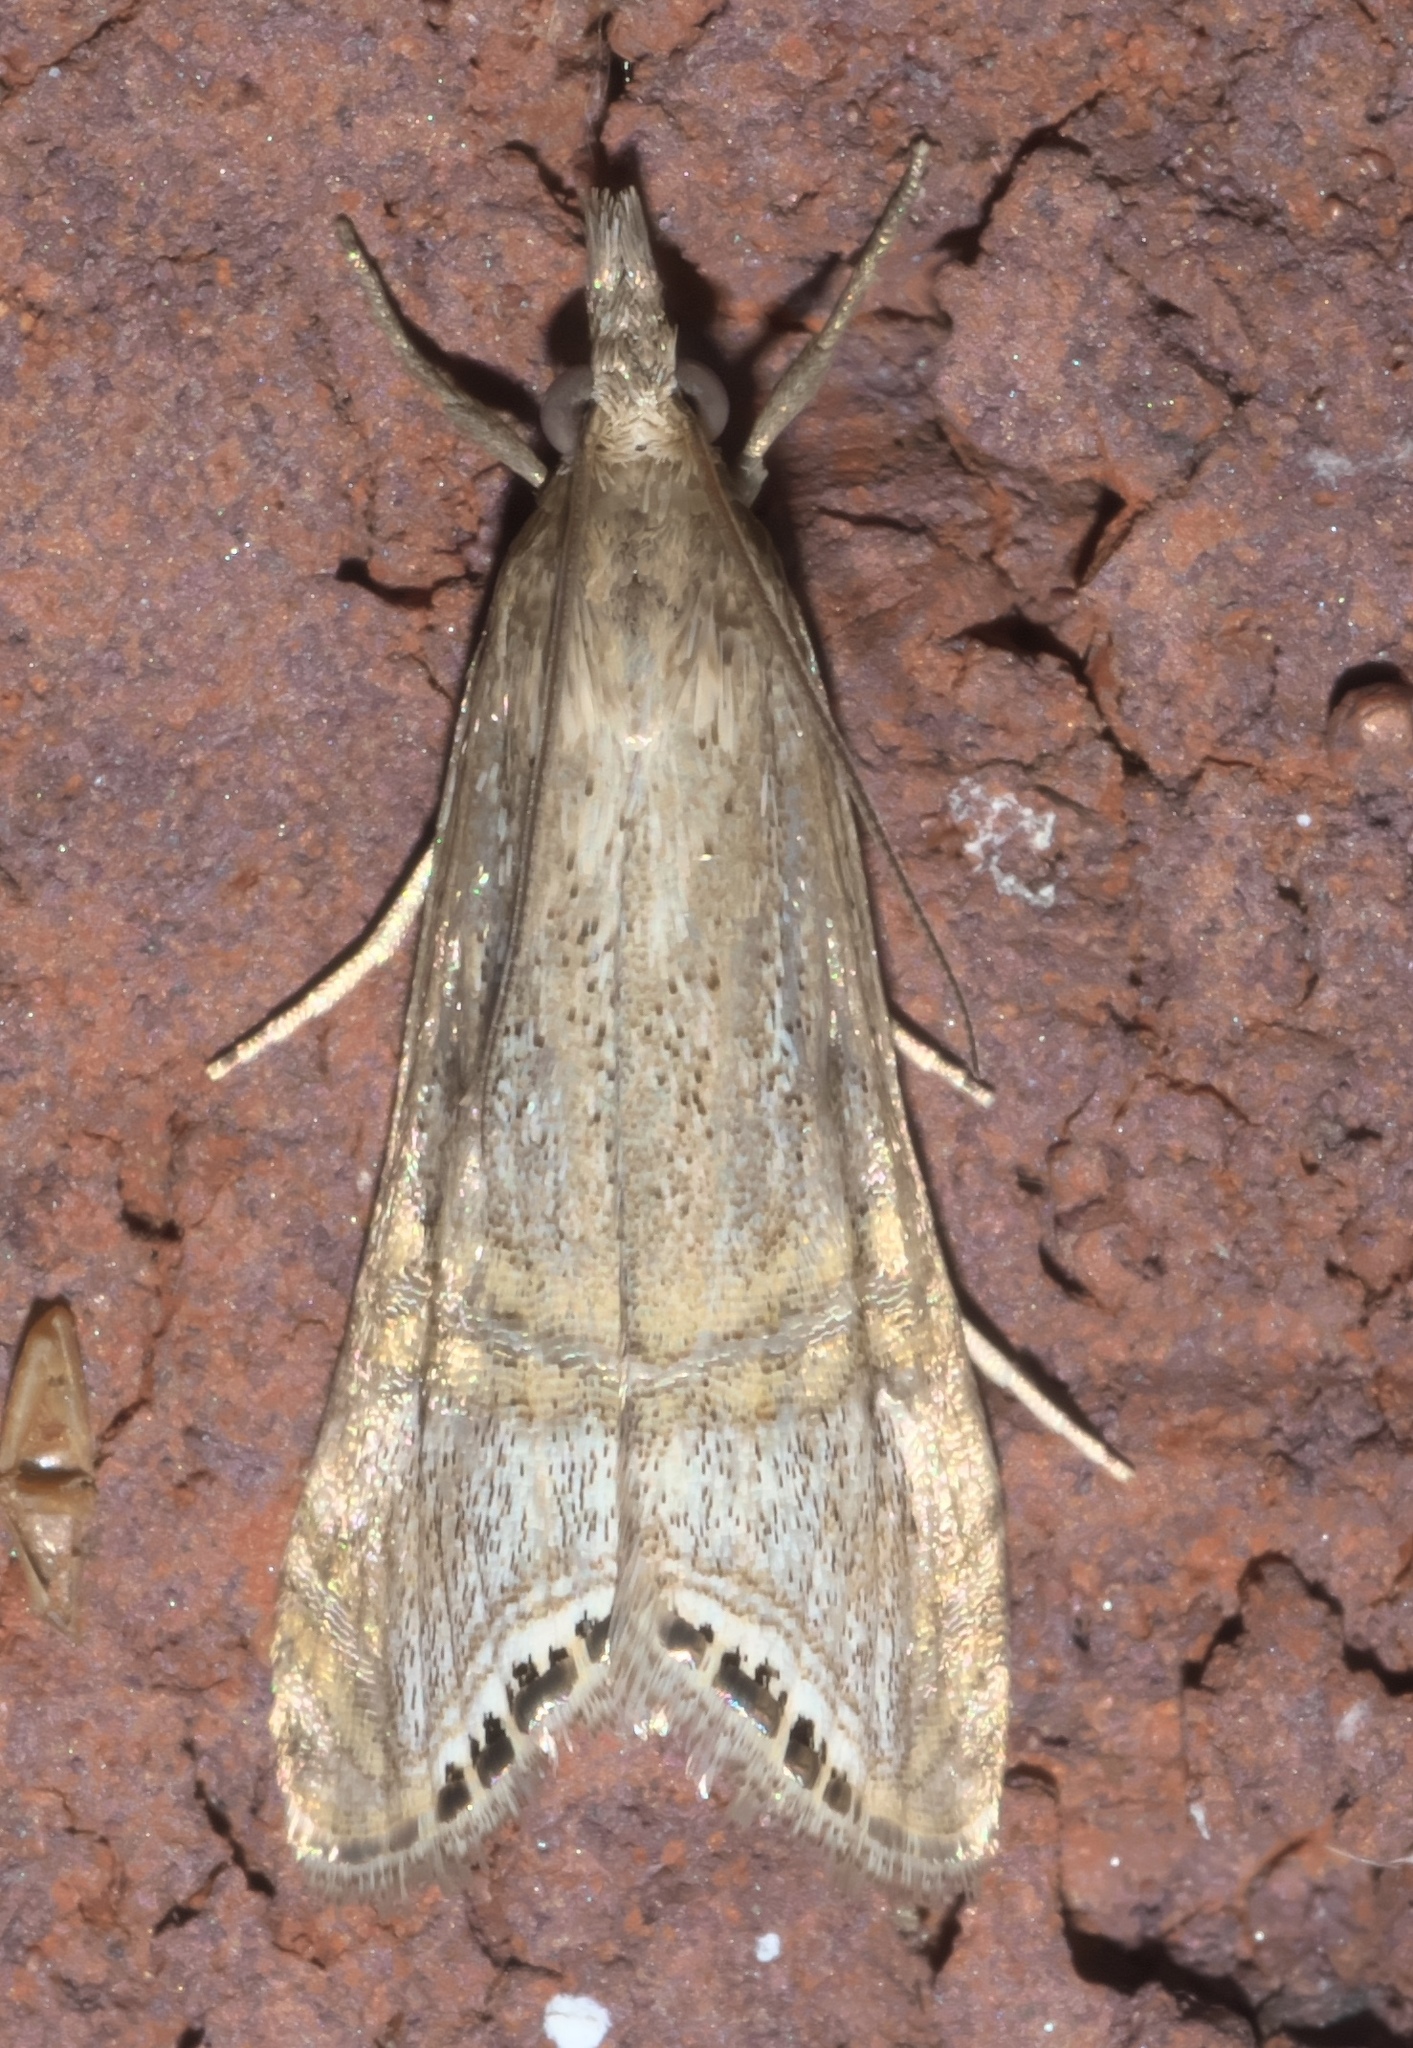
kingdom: Animalia
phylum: Arthropoda
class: Insecta
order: Lepidoptera
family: Crambidae
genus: Euchromius
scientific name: Euchromius ocellea
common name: Necklace veneer moth
